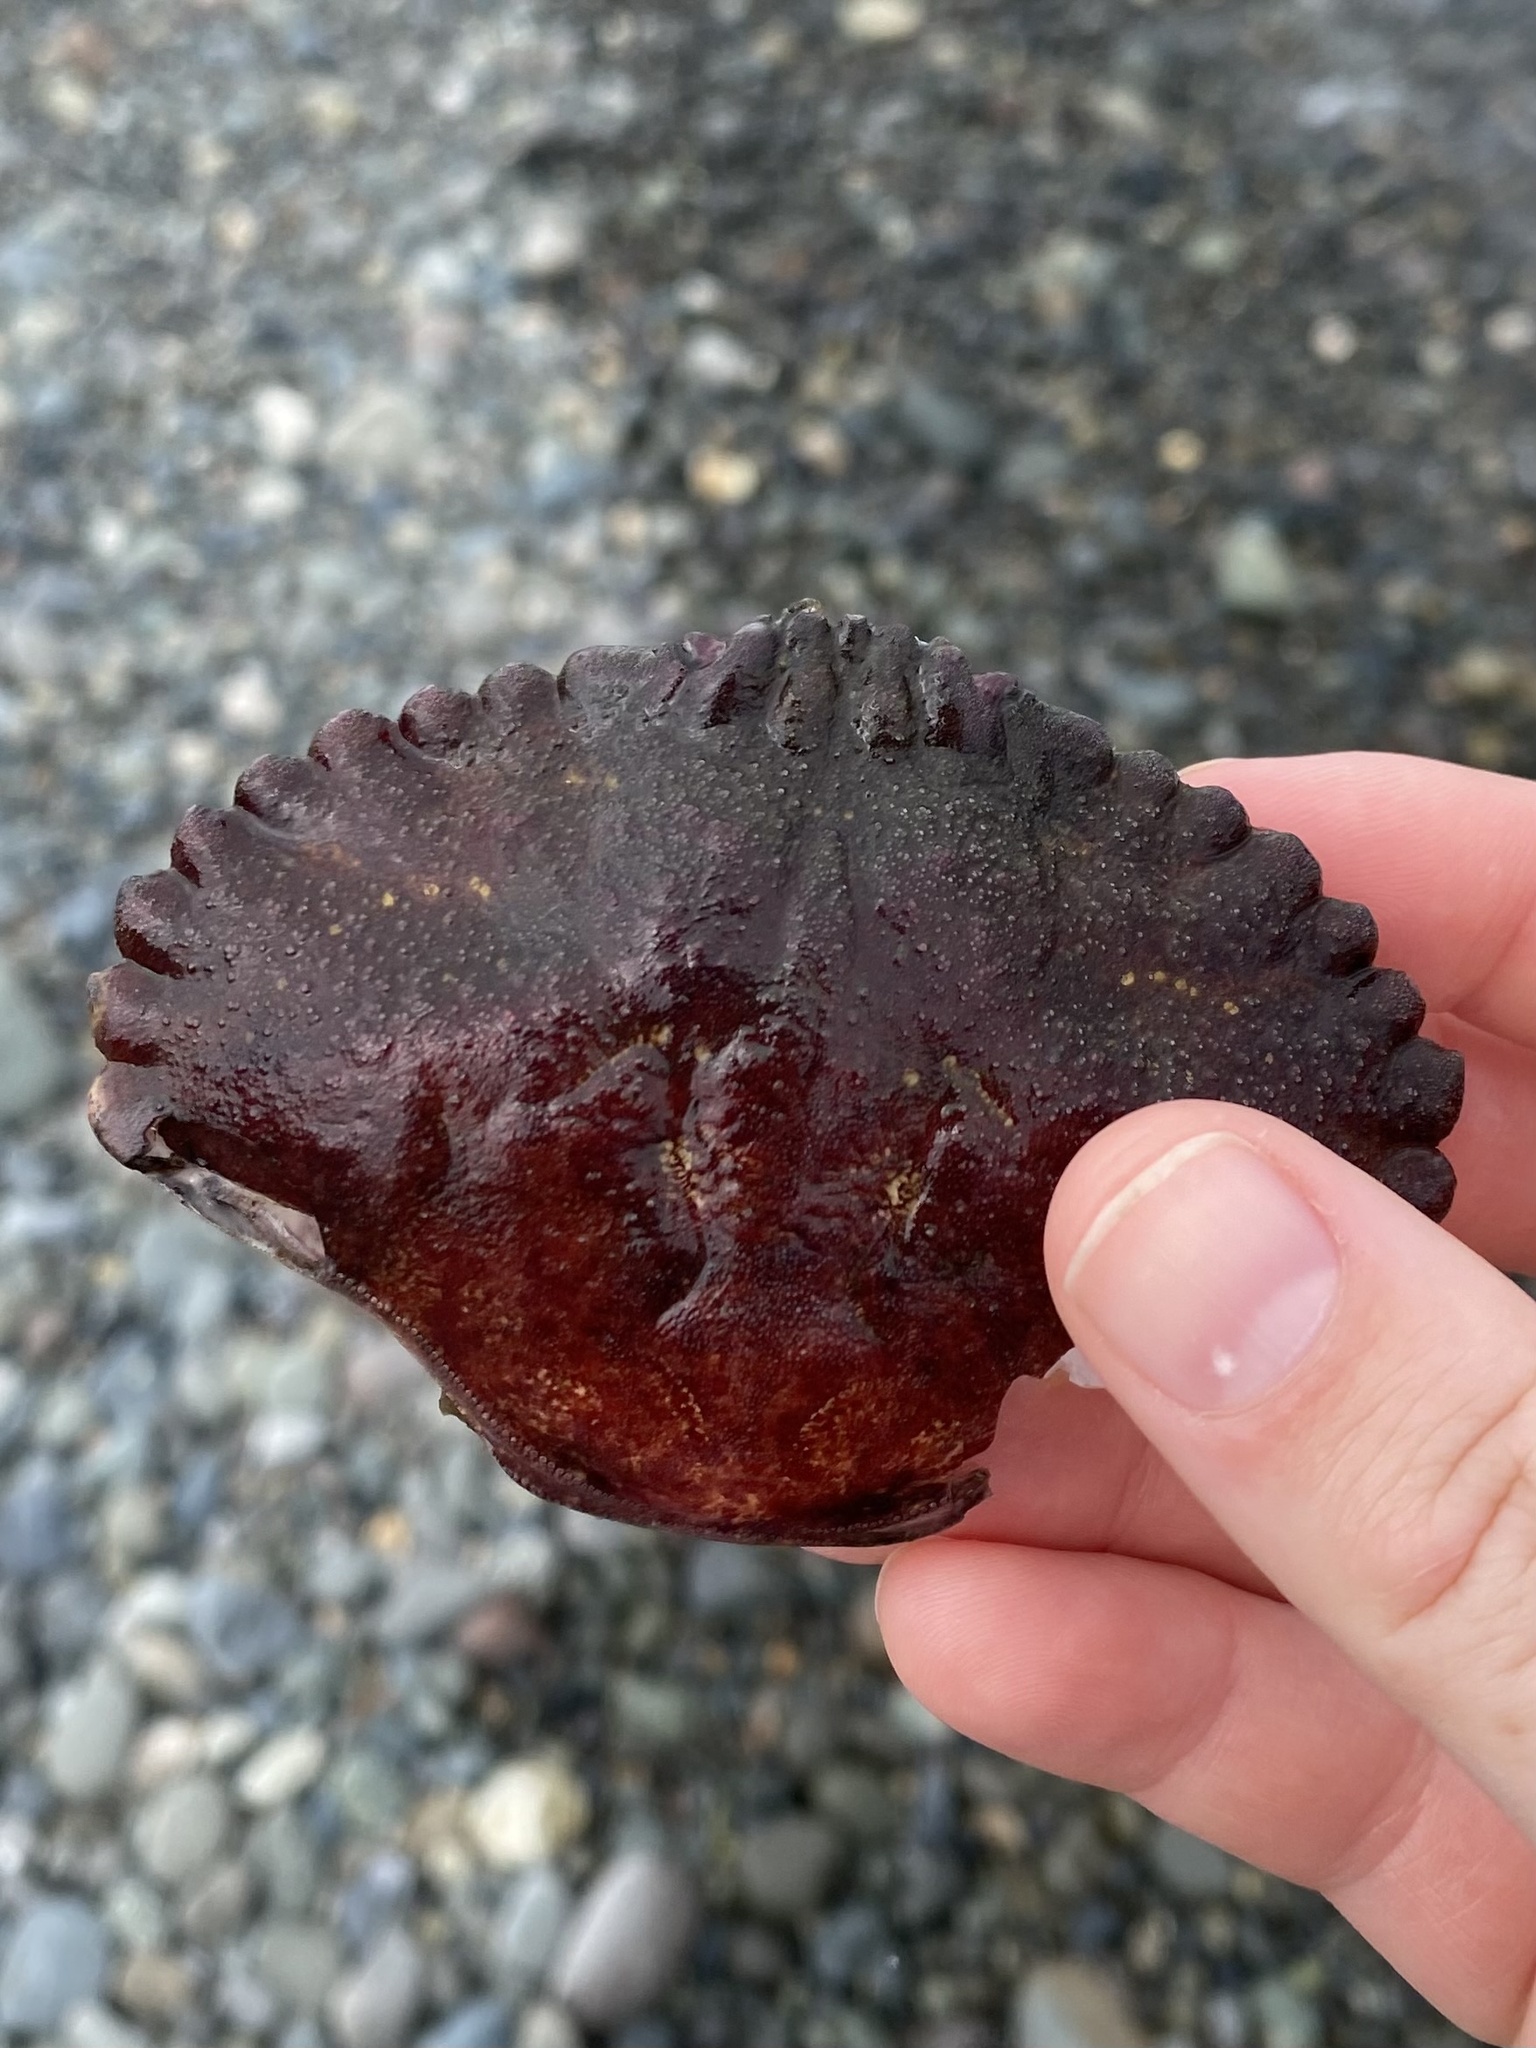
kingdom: Animalia
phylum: Arthropoda
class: Malacostraca
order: Decapoda
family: Cancridae
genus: Cancer
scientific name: Cancer productus
